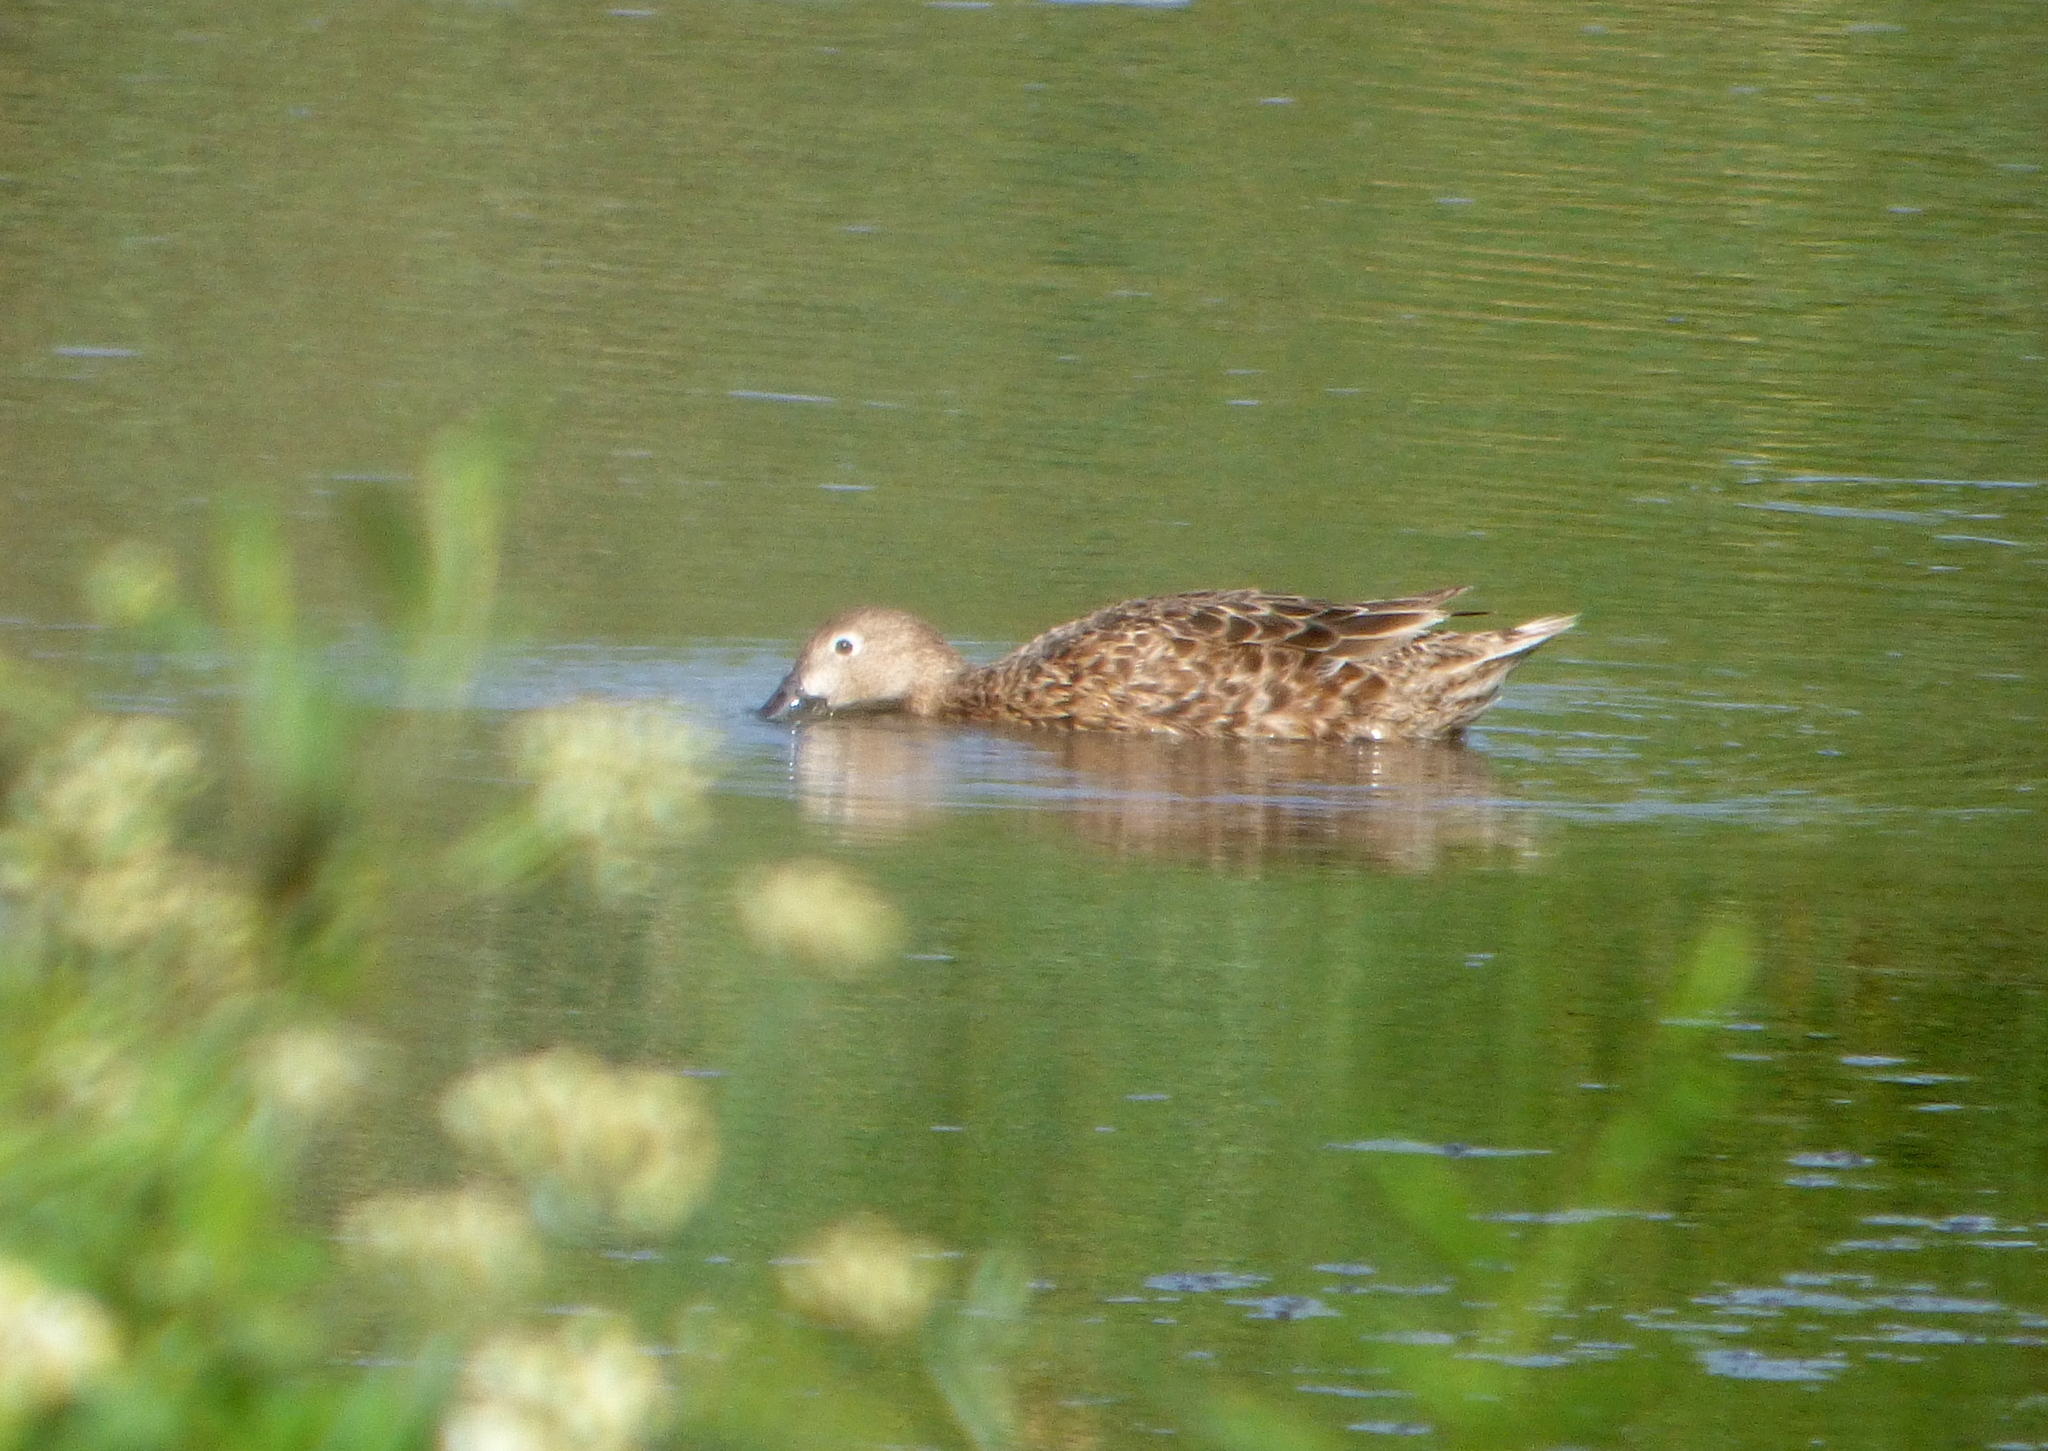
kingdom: Animalia
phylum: Chordata
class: Aves
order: Anseriformes
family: Anatidae
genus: Spatula
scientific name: Spatula cyanoptera
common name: Cinnamon teal
